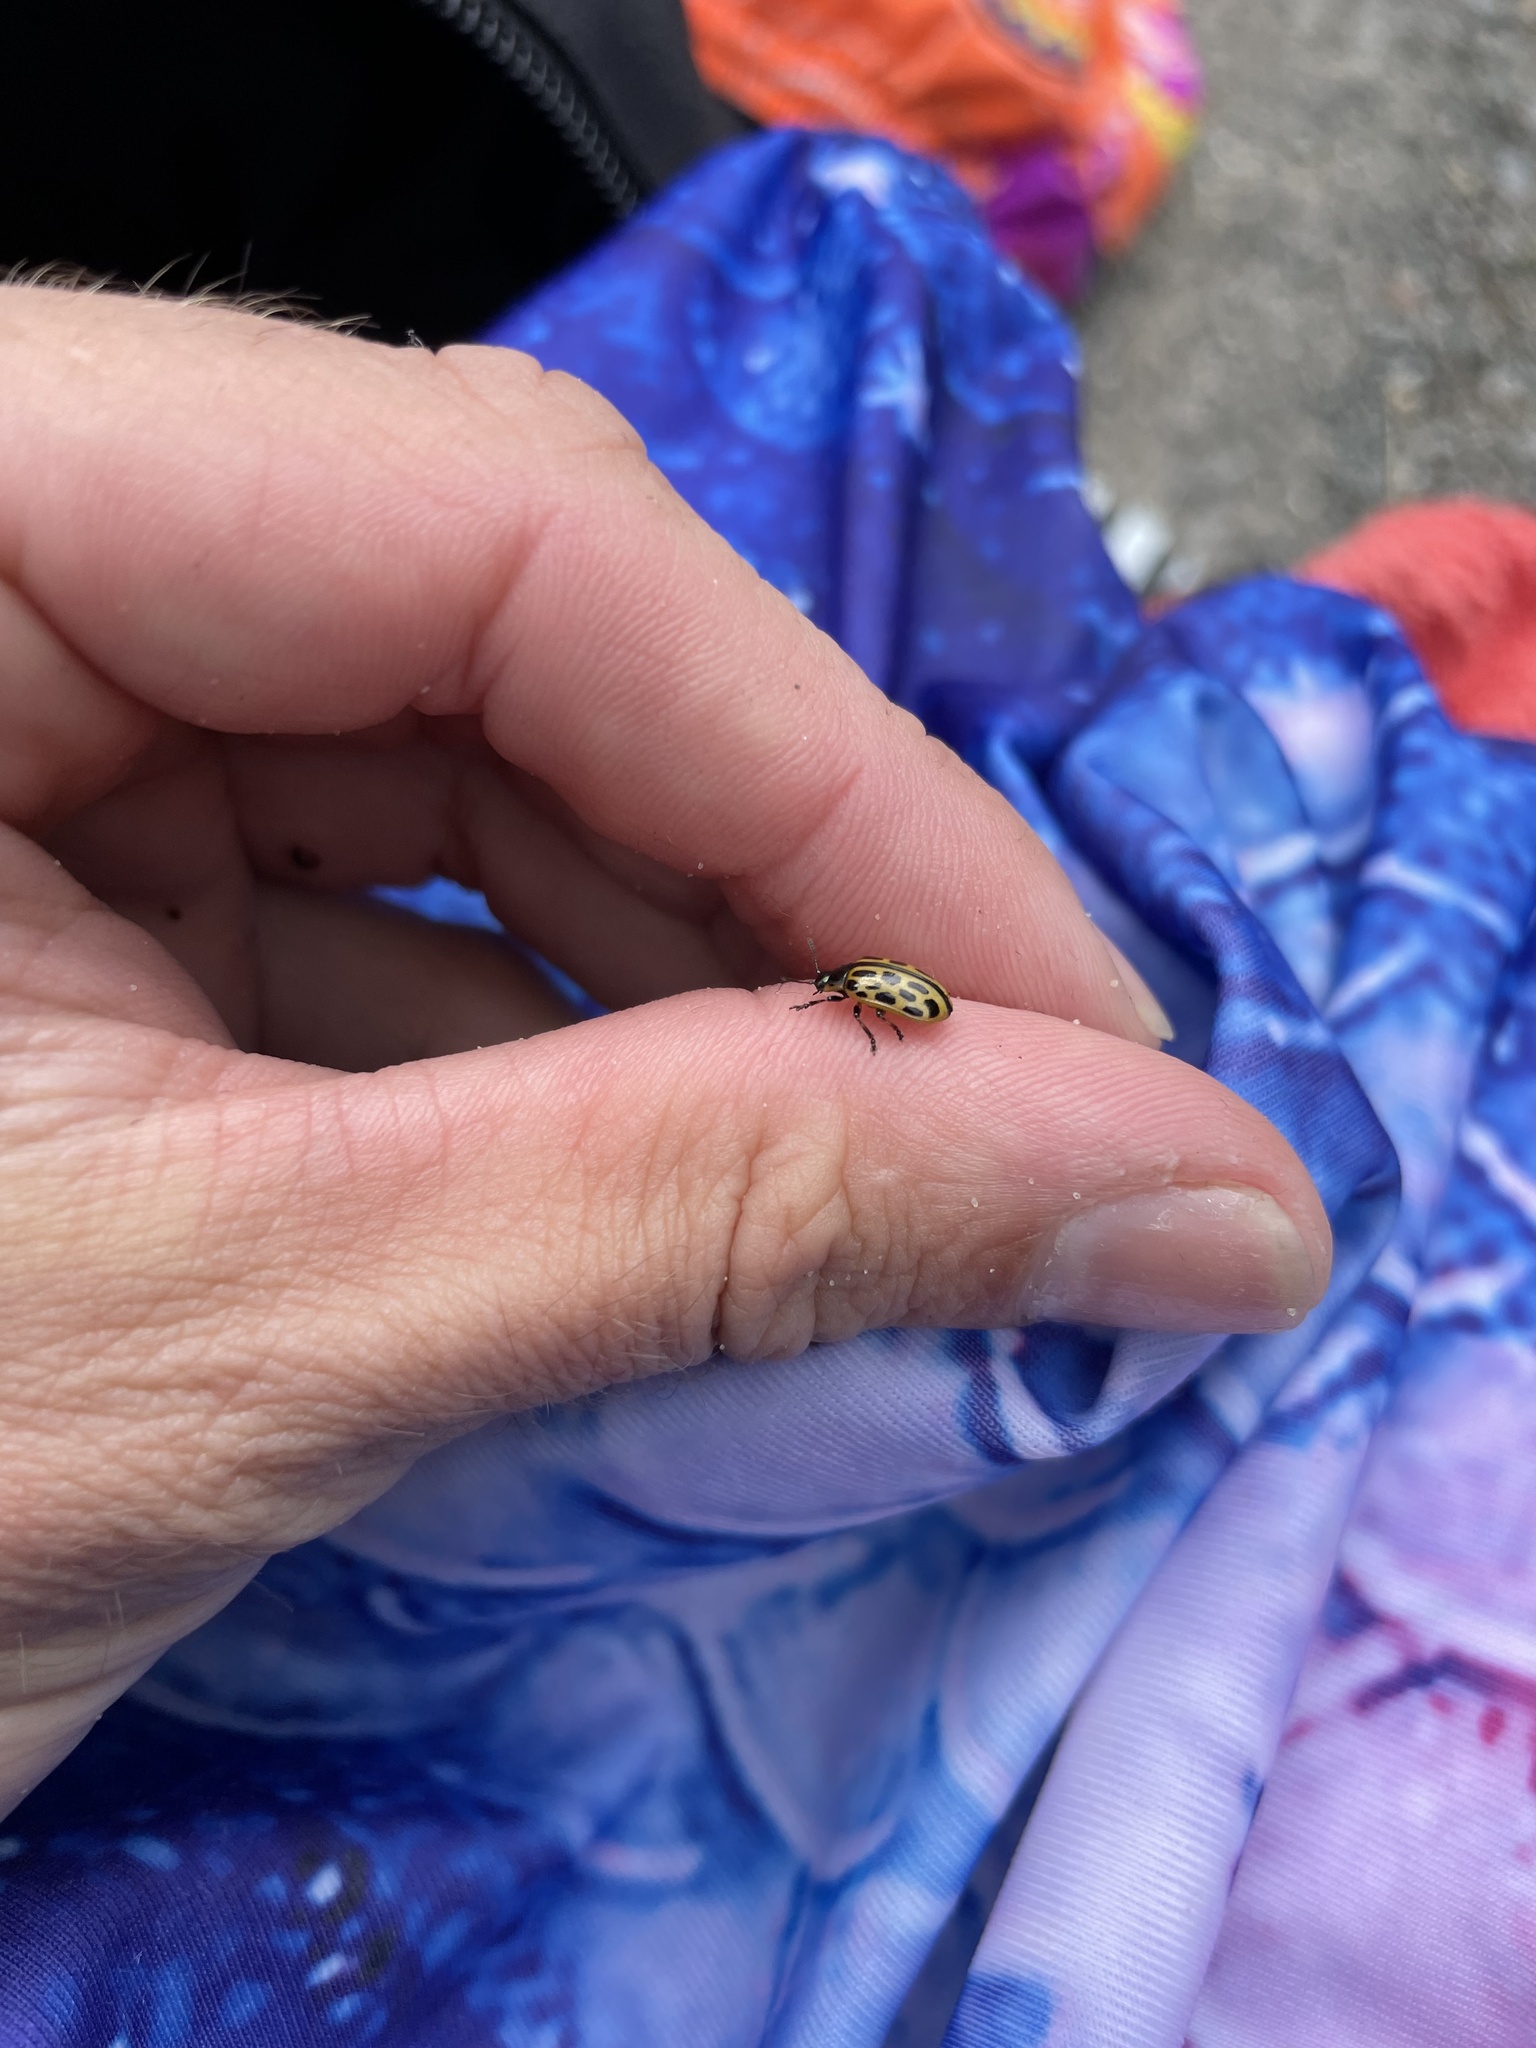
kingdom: Animalia
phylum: Arthropoda
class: Insecta
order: Coleoptera
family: Chrysomelidae
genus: Chrysomela
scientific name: Chrysomela vigintipunctata
